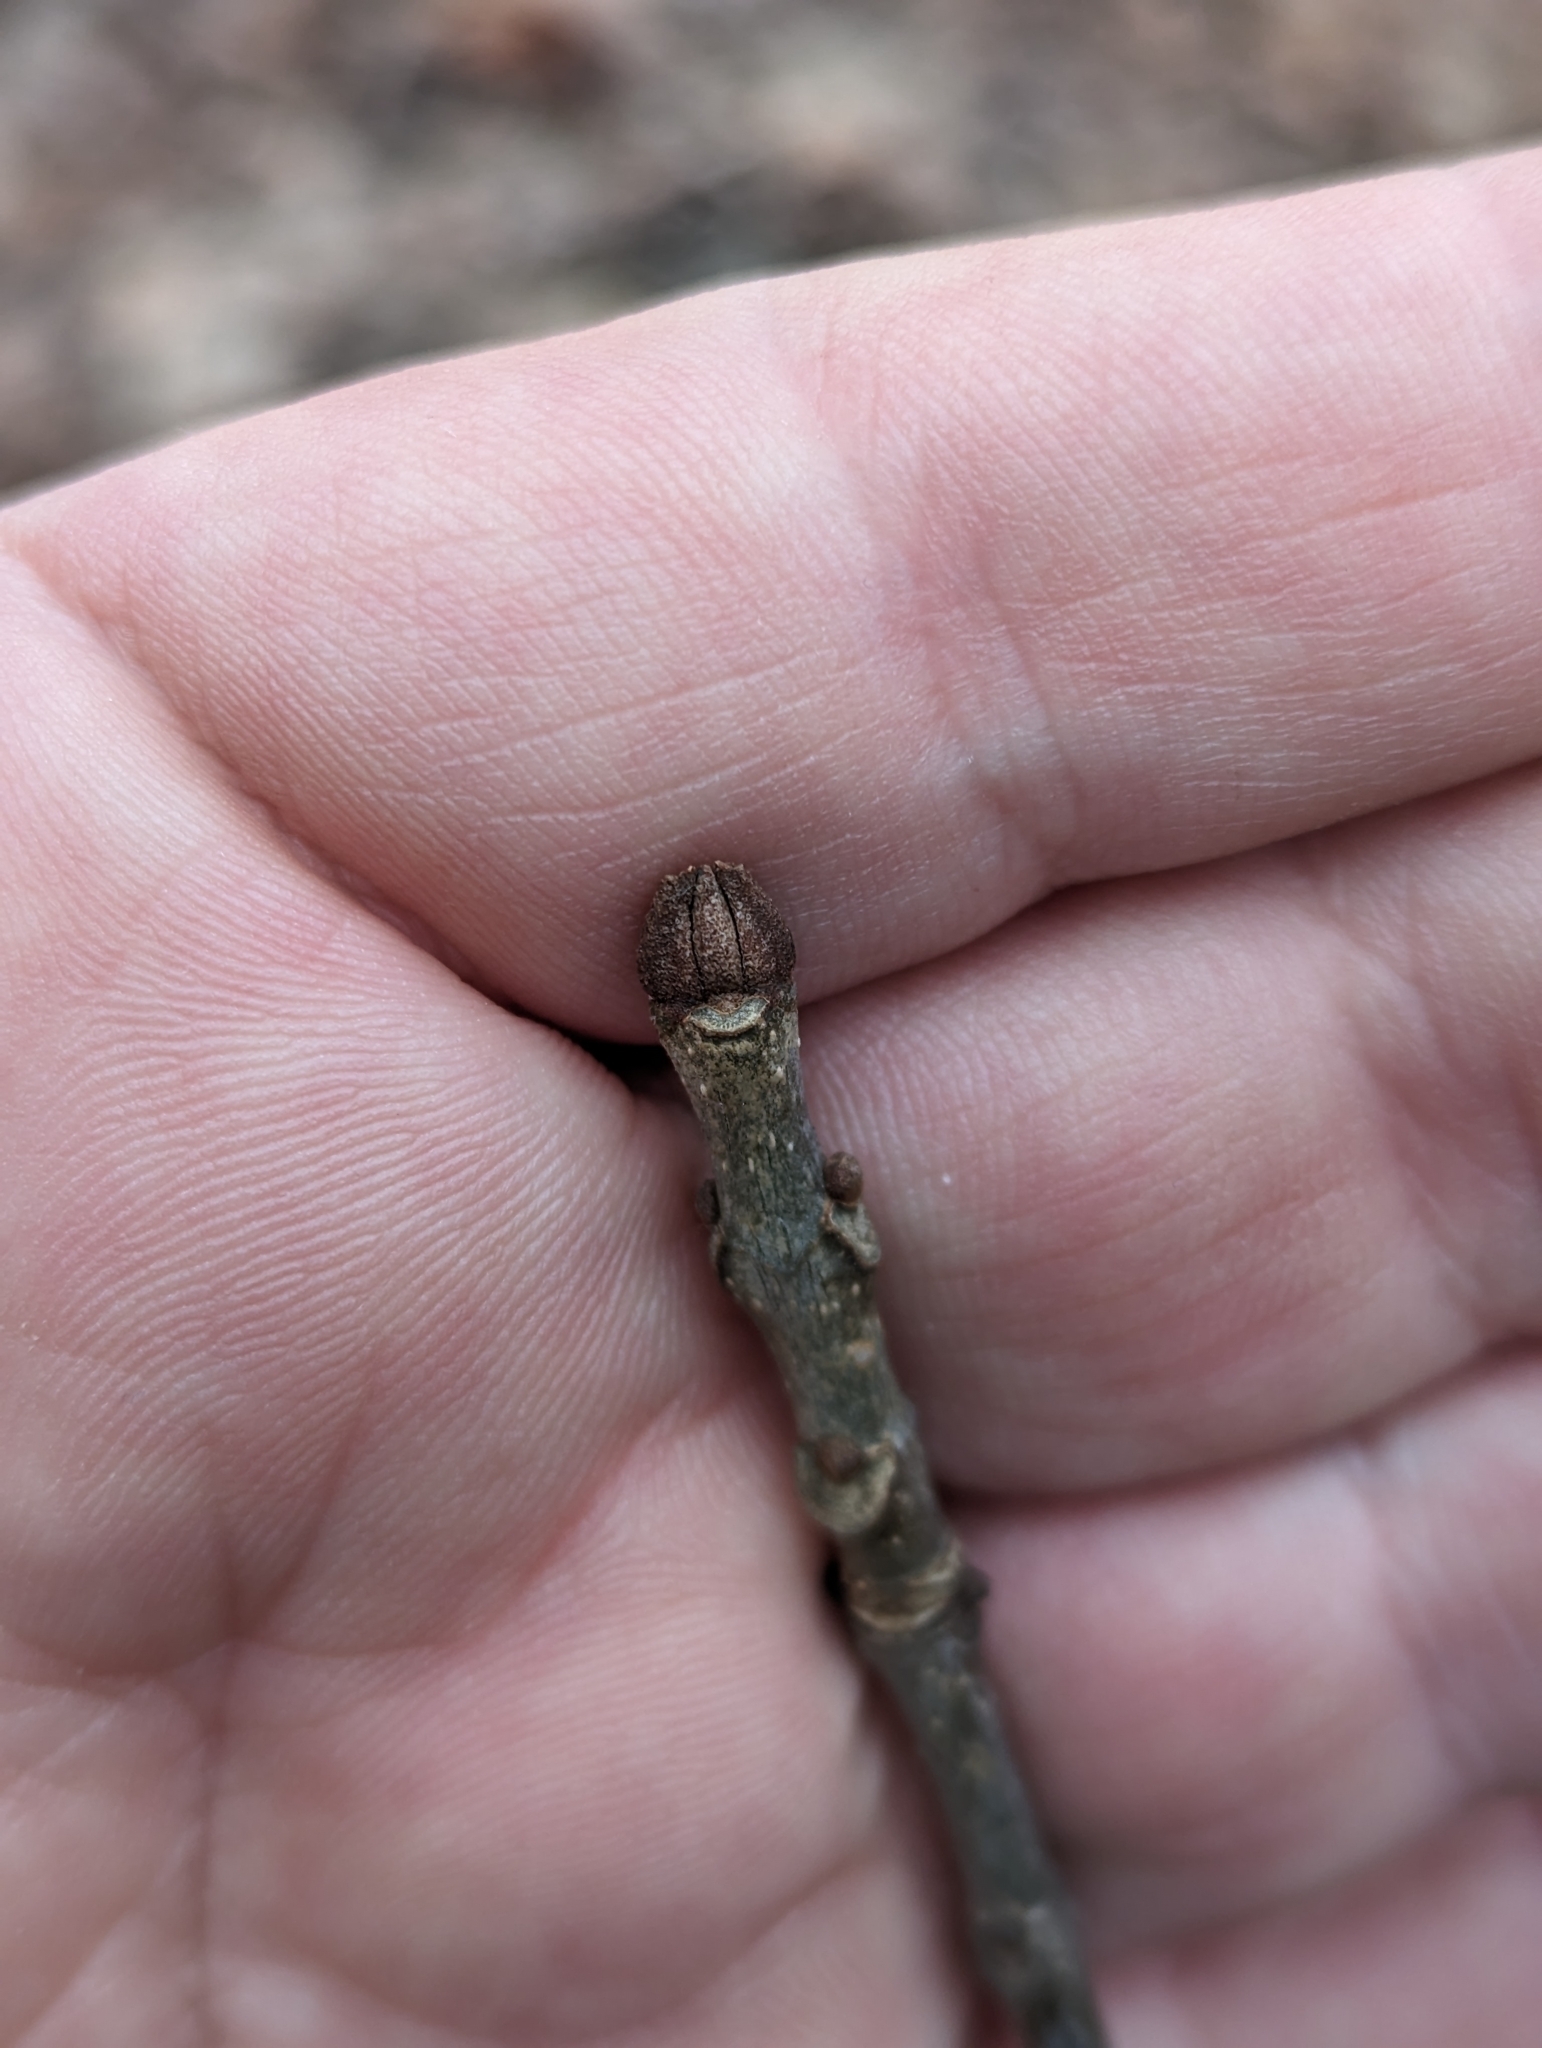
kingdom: Plantae
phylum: Tracheophyta
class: Magnoliopsida
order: Lamiales
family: Oleaceae
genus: Fraxinus
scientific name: Fraxinus americana
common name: White ash
